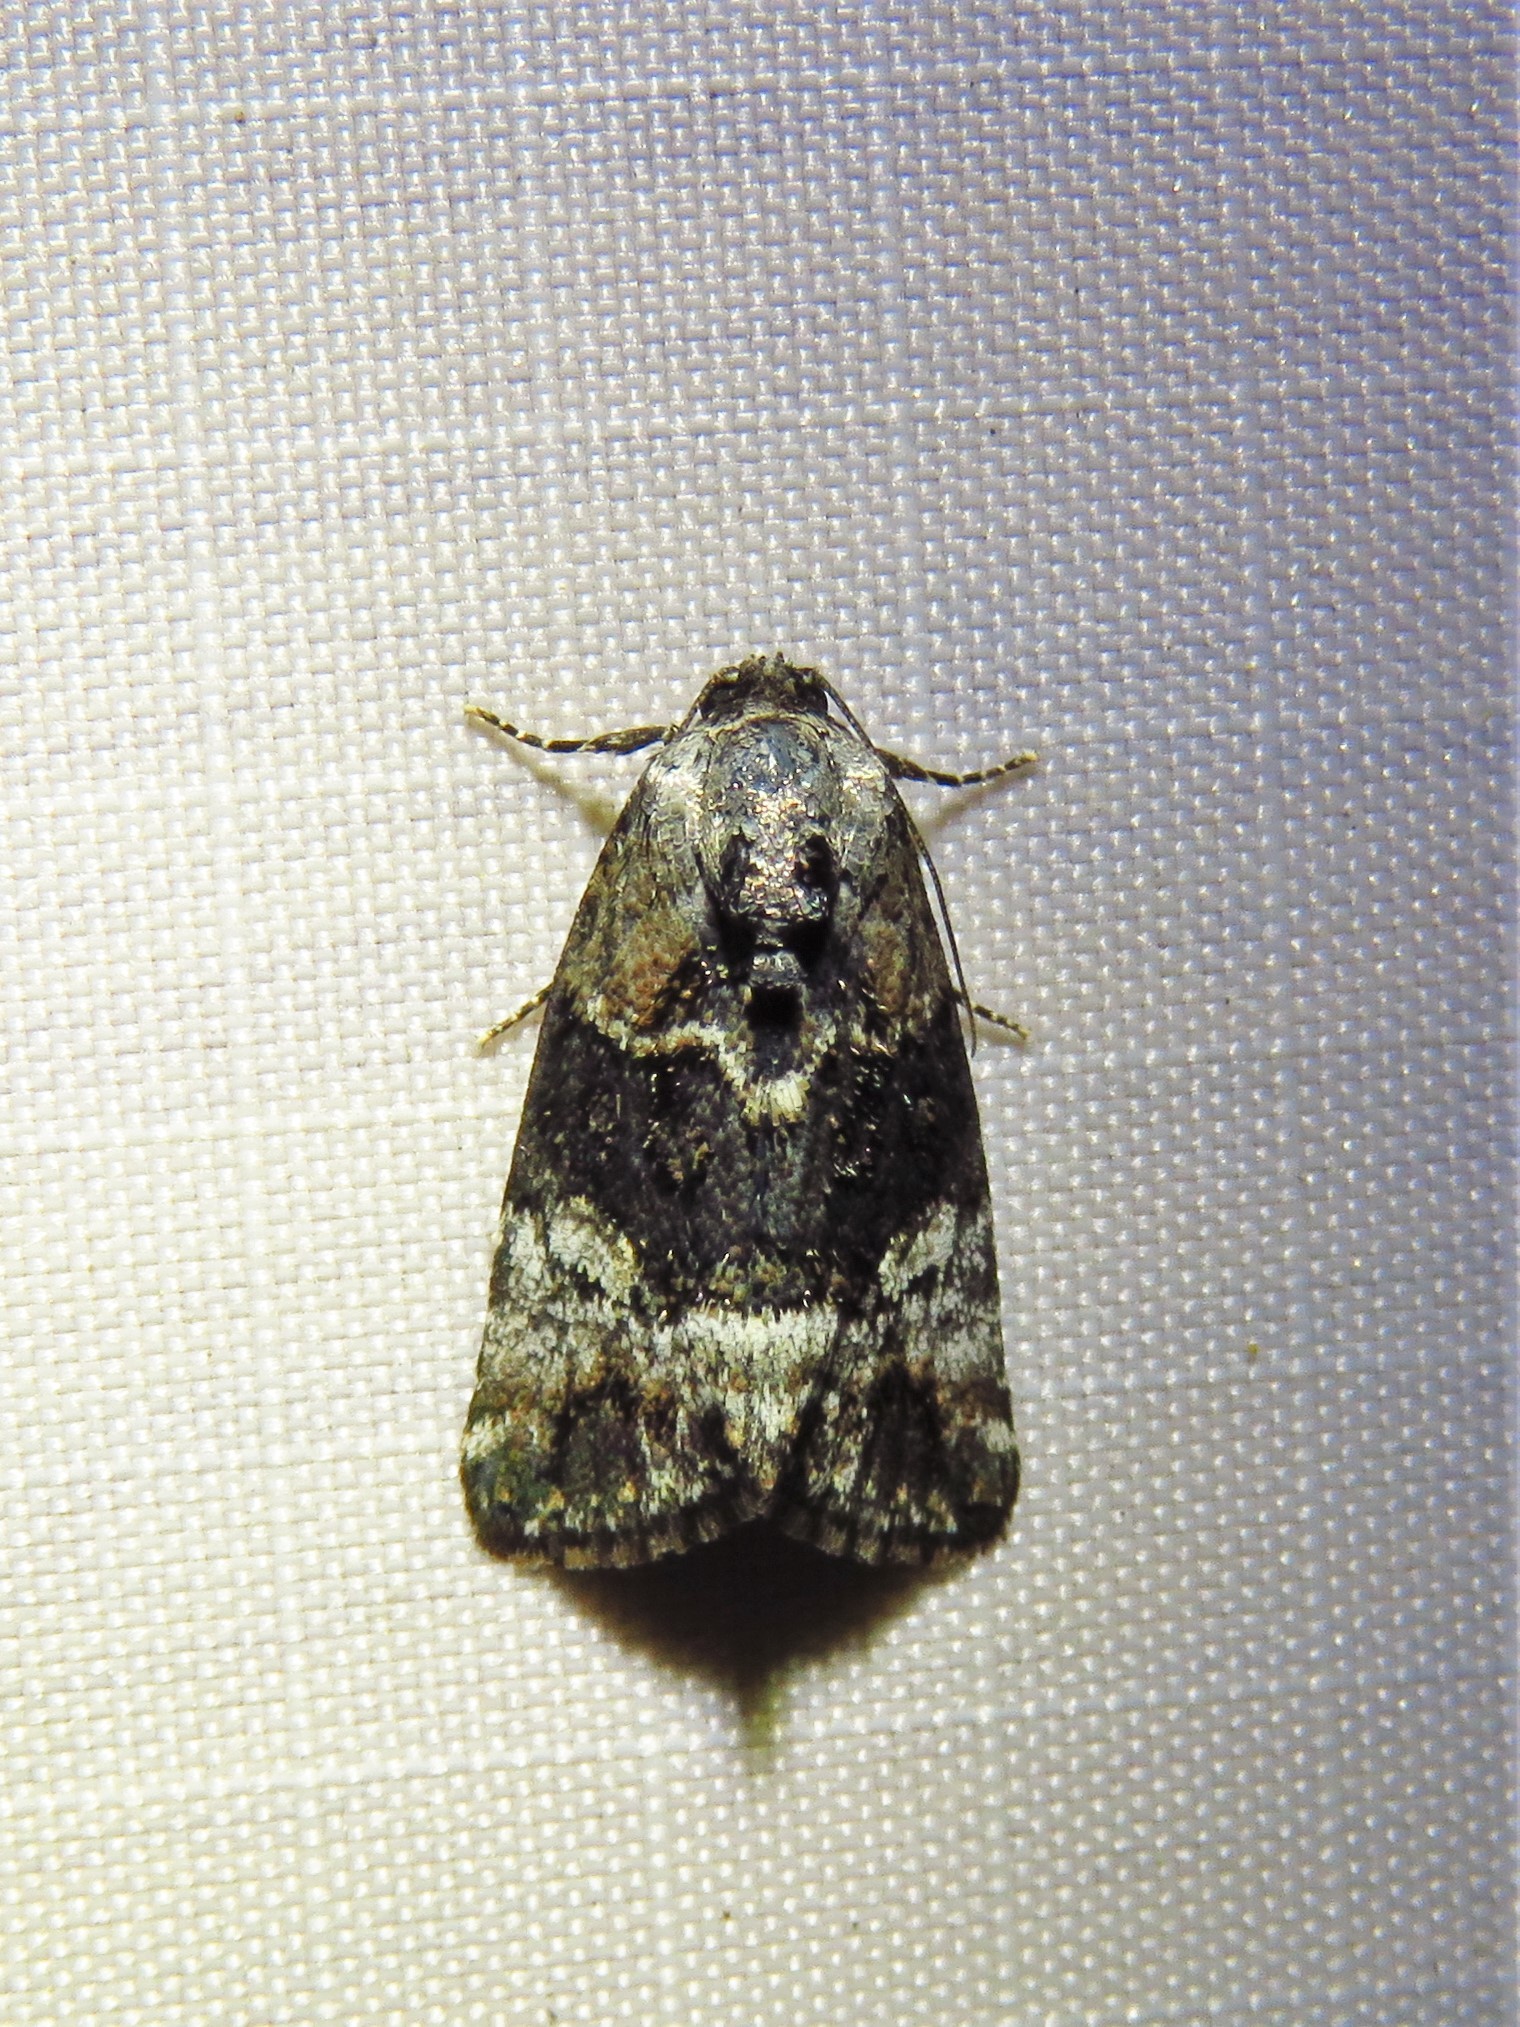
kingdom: Animalia
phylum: Arthropoda
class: Insecta
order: Lepidoptera
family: Noctuidae
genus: Elaphria
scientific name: Elaphria georgei
